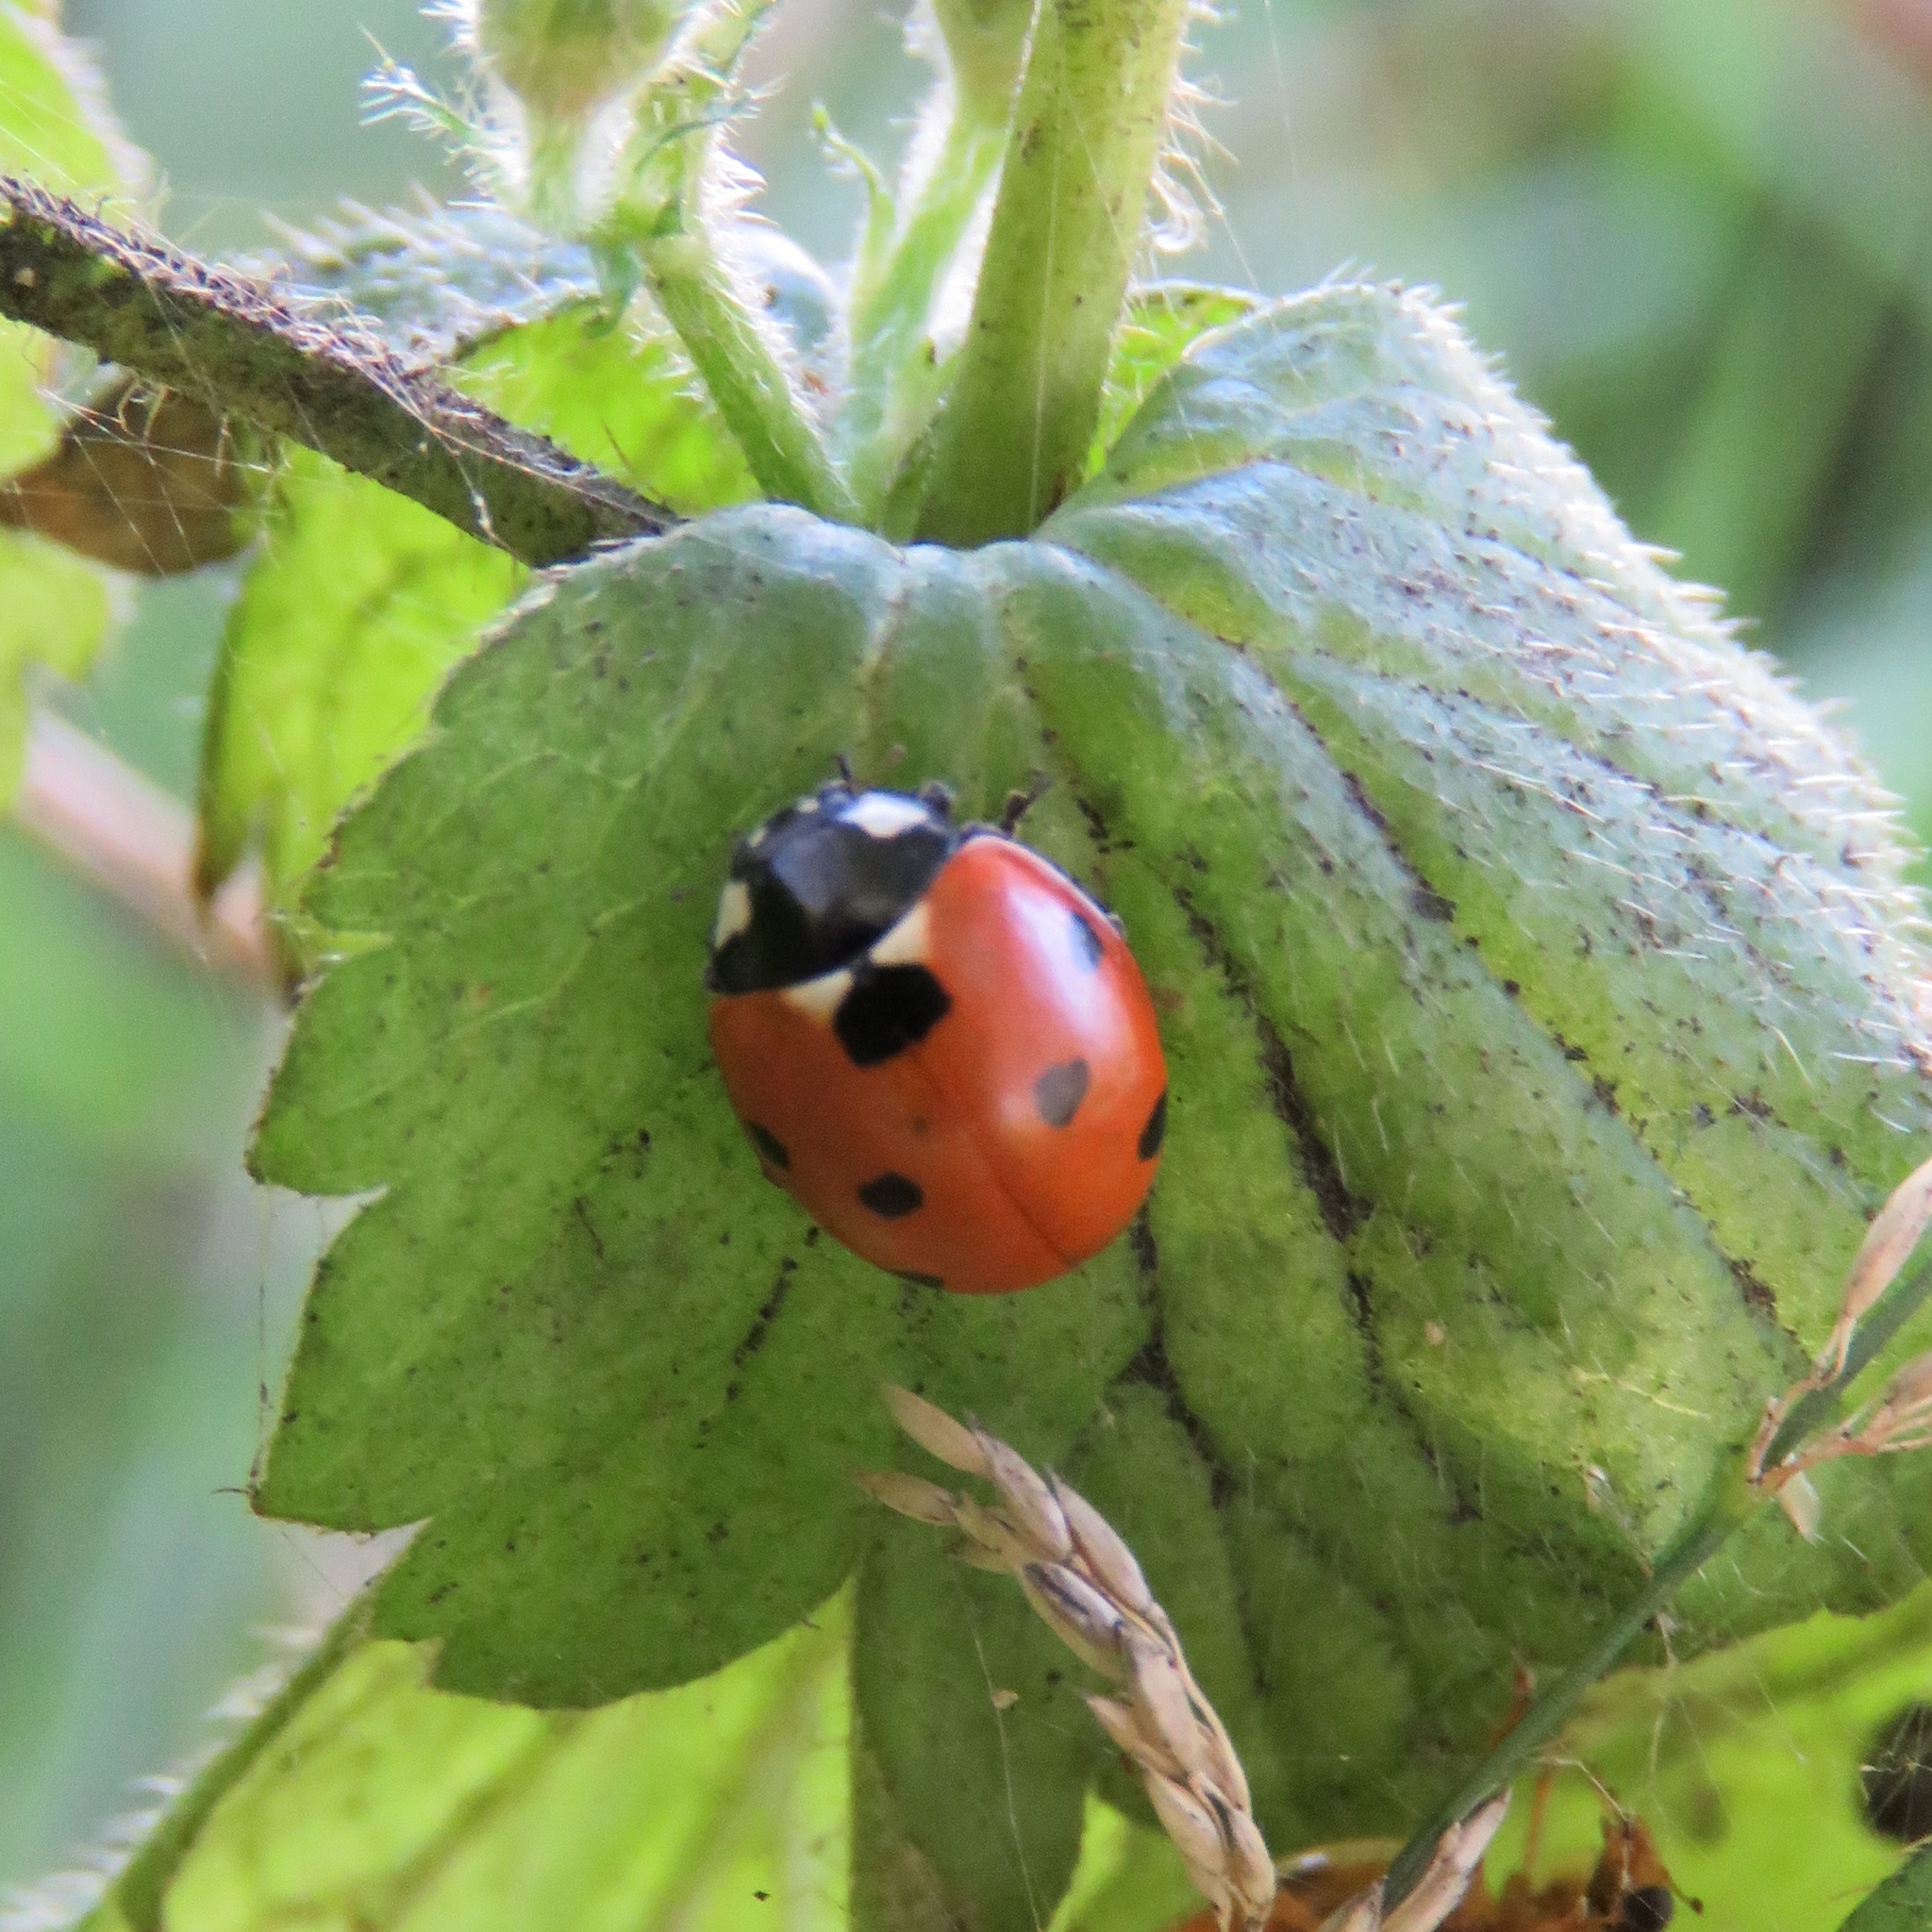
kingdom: Animalia
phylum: Arthropoda
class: Insecta
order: Coleoptera
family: Coccinellidae
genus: Coccinella
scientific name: Coccinella septempunctata
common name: Sevenspotted lady beetle
